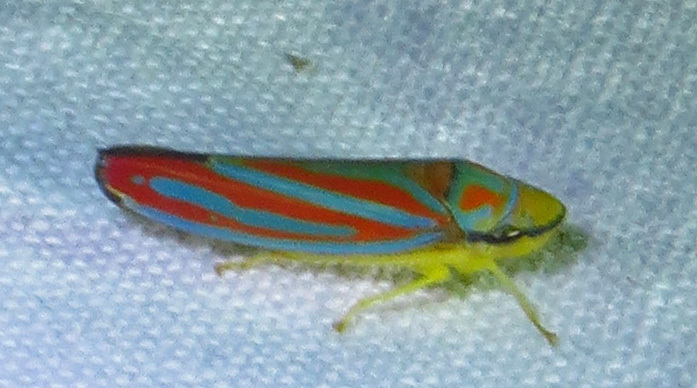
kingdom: Animalia
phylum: Arthropoda
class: Insecta
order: Hemiptera
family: Cicadellidae
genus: Graphocephala
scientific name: Graphocephala coccinea
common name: Candy-striped leafhopper
